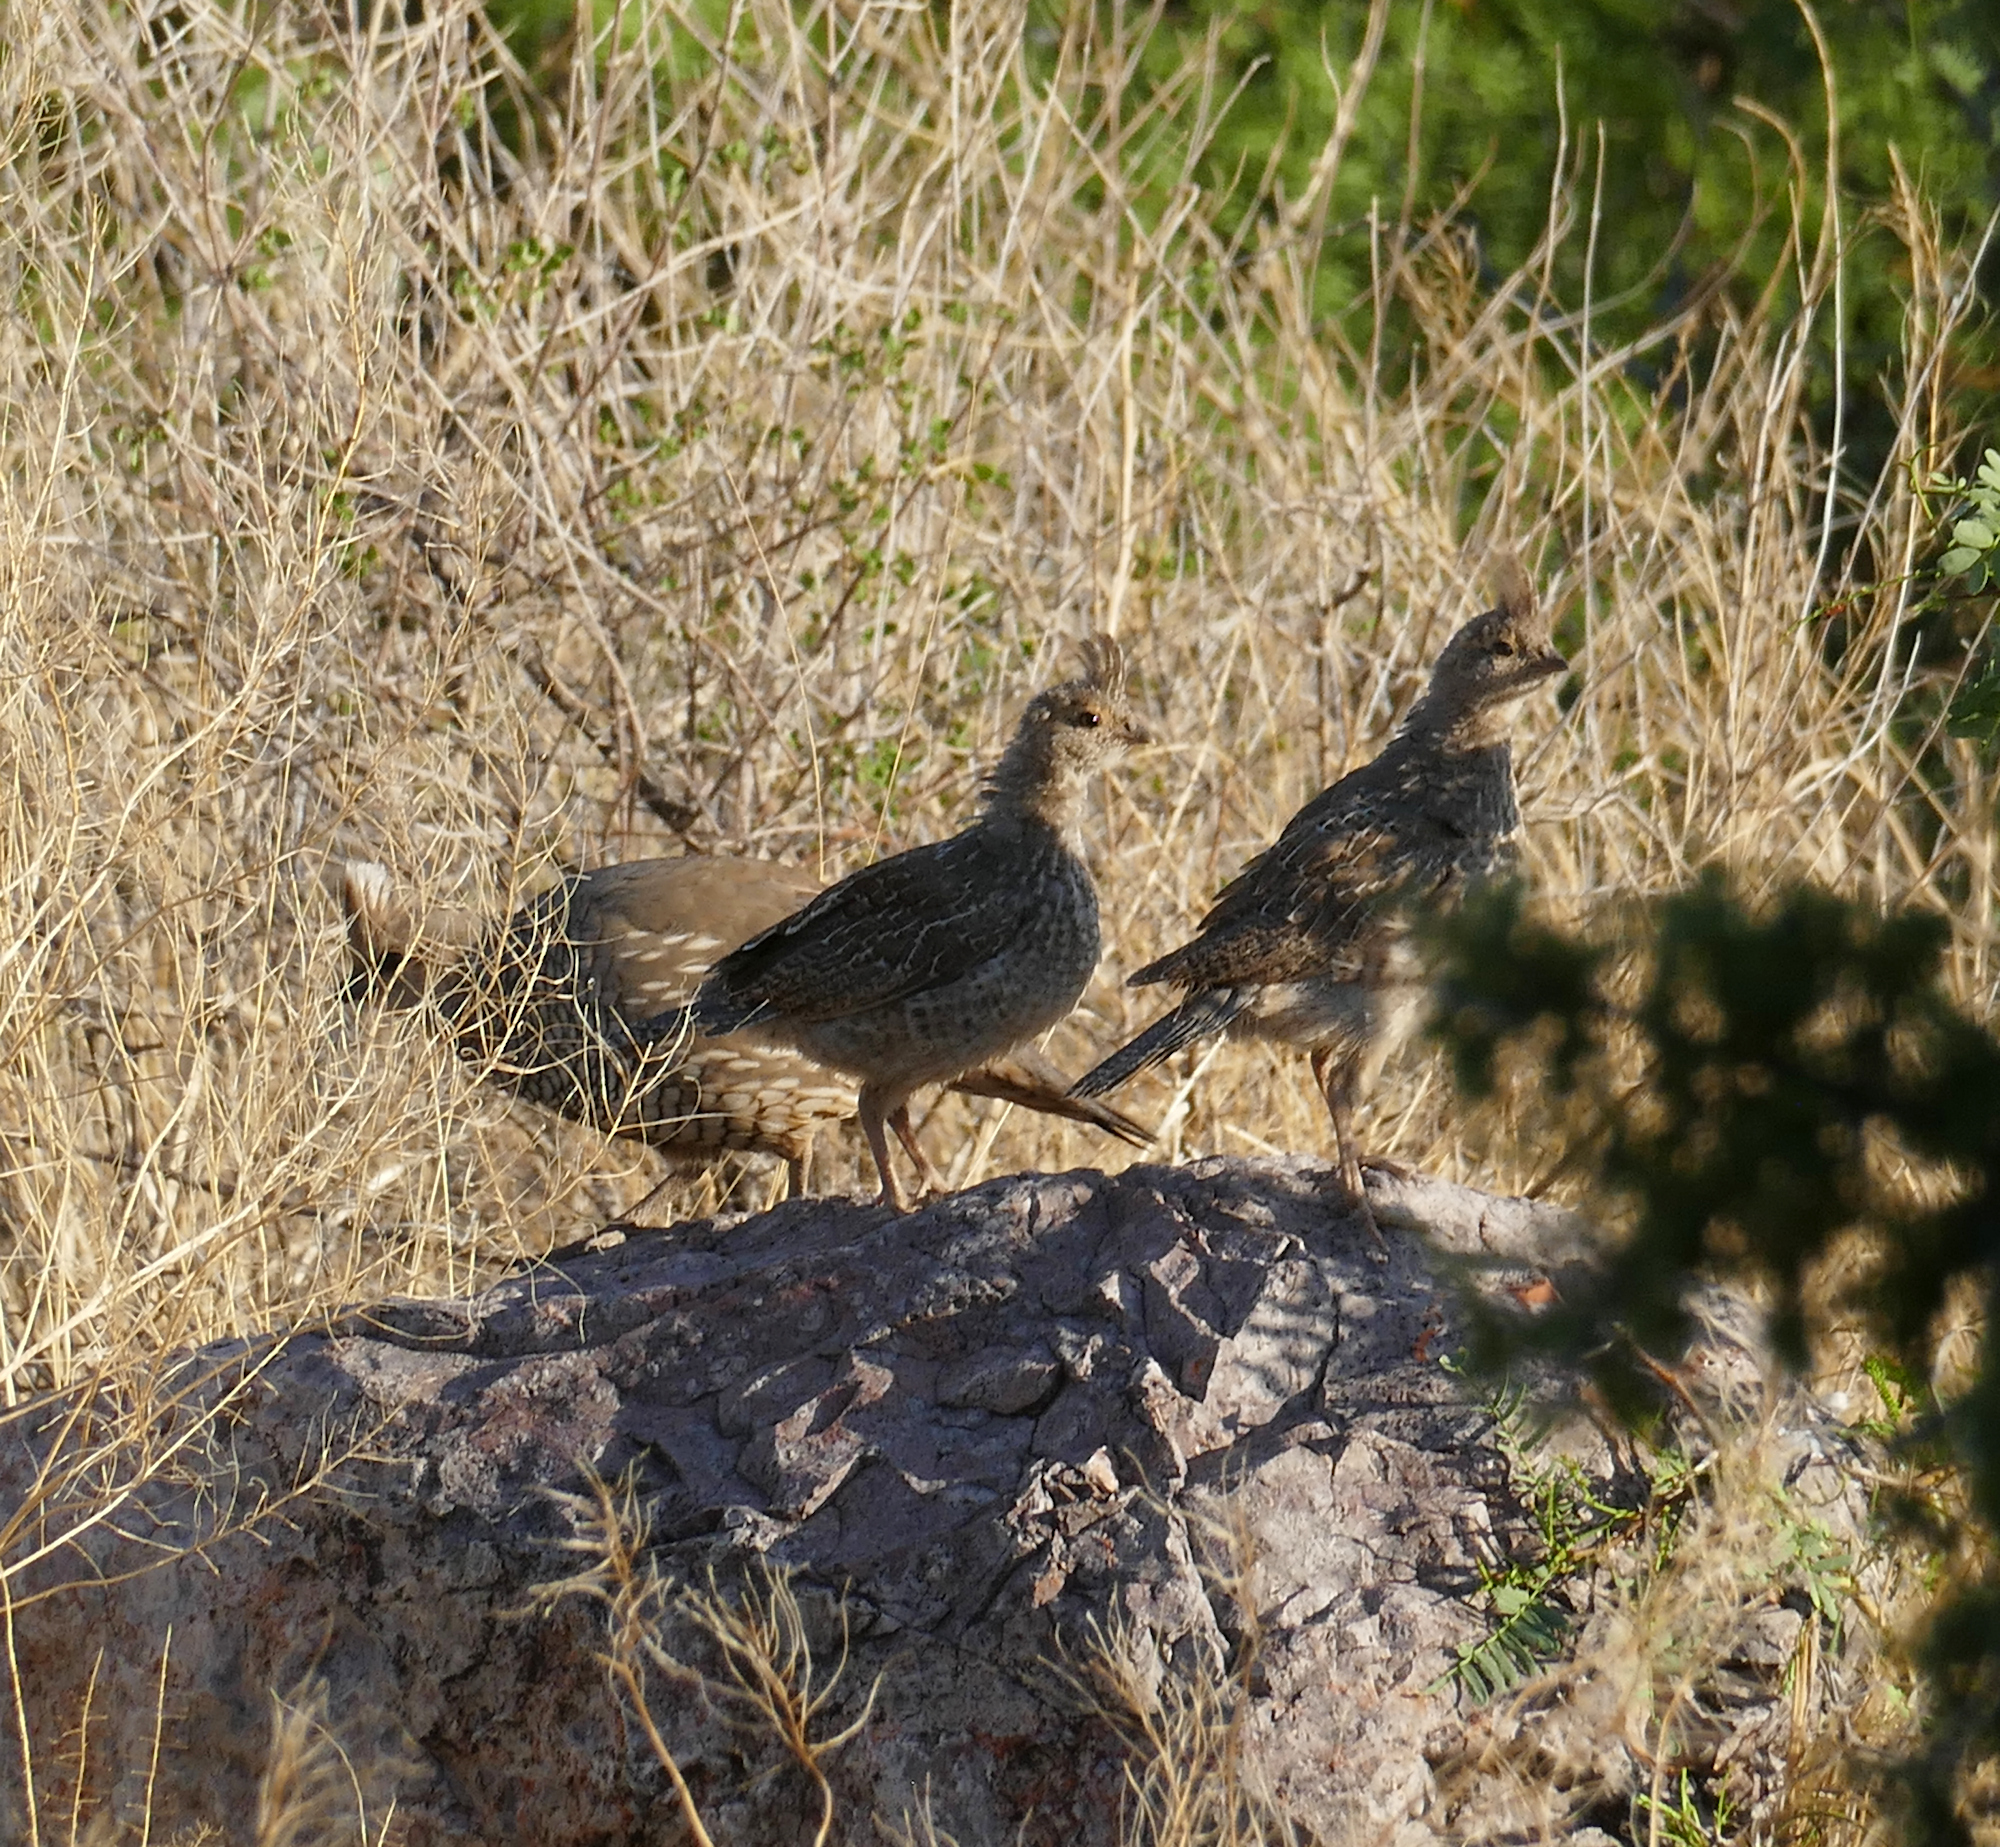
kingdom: Animalia
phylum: Chordata
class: Aves
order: Galliformes
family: Odontophoridae
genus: Callipepla
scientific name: Callipepla squamata
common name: Scaled quail
